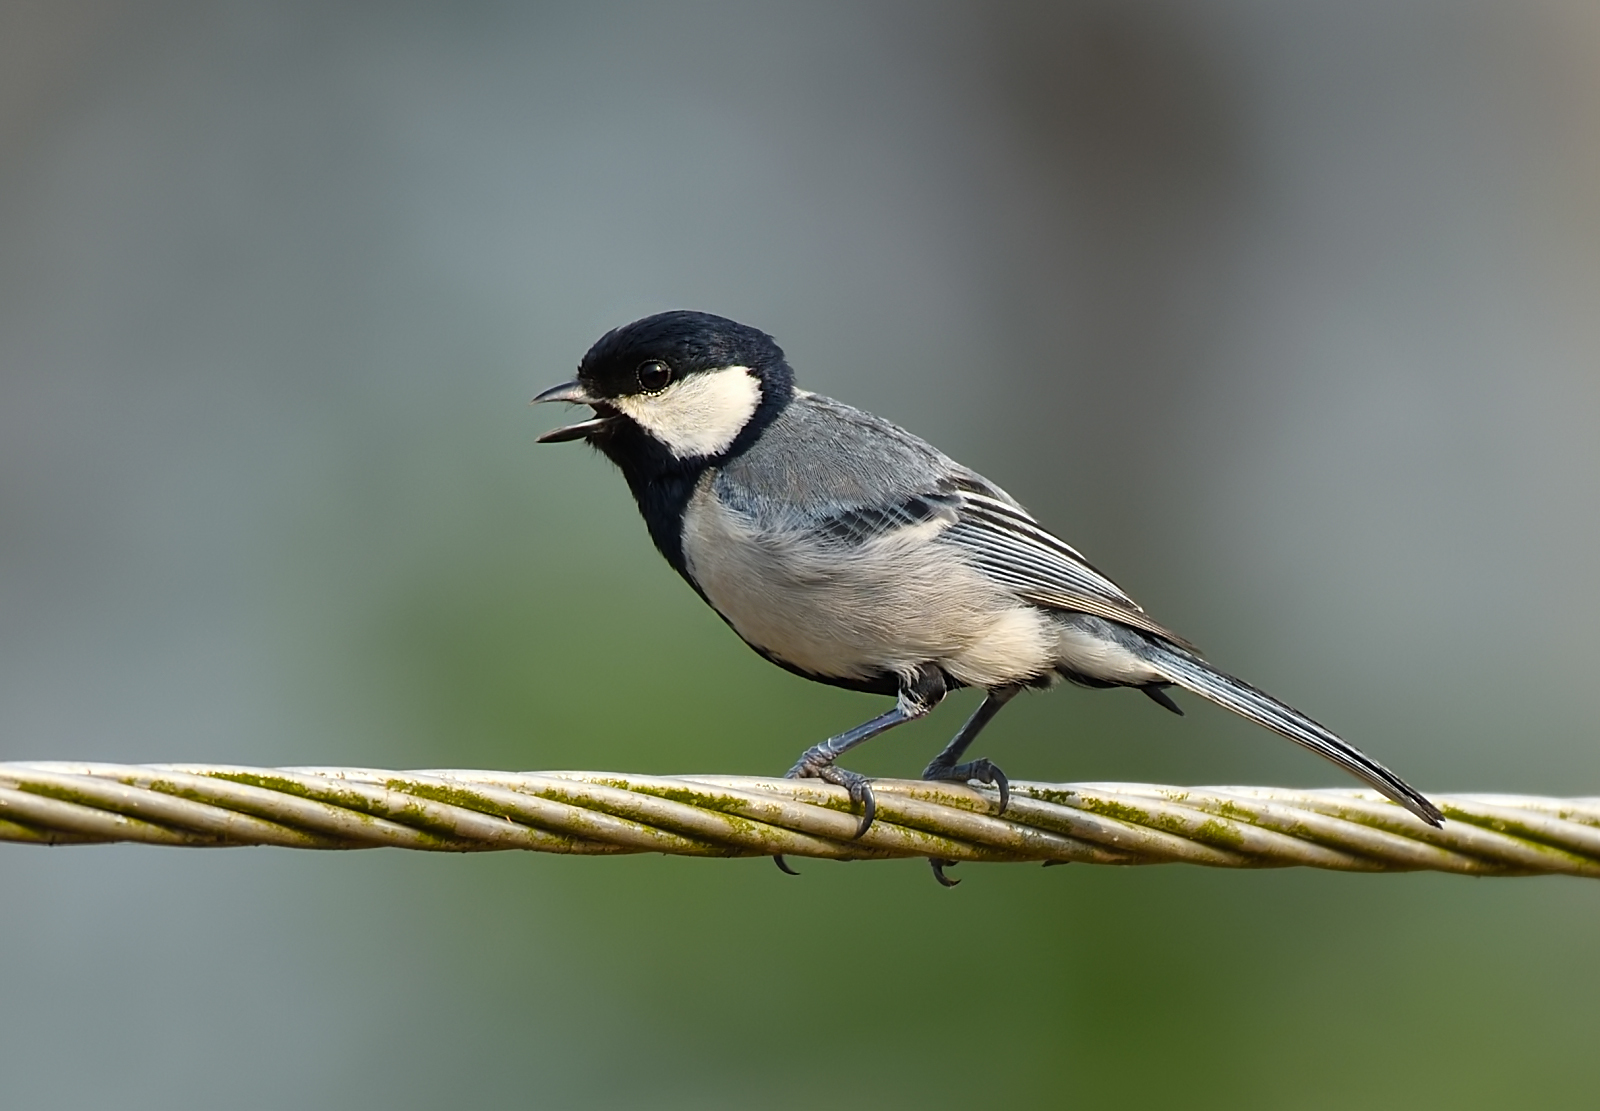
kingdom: Animalia
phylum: Chordata
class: Aves
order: Passeriformes
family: Paridae
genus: Parus
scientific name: Parus cinereus
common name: Cinereous tit
